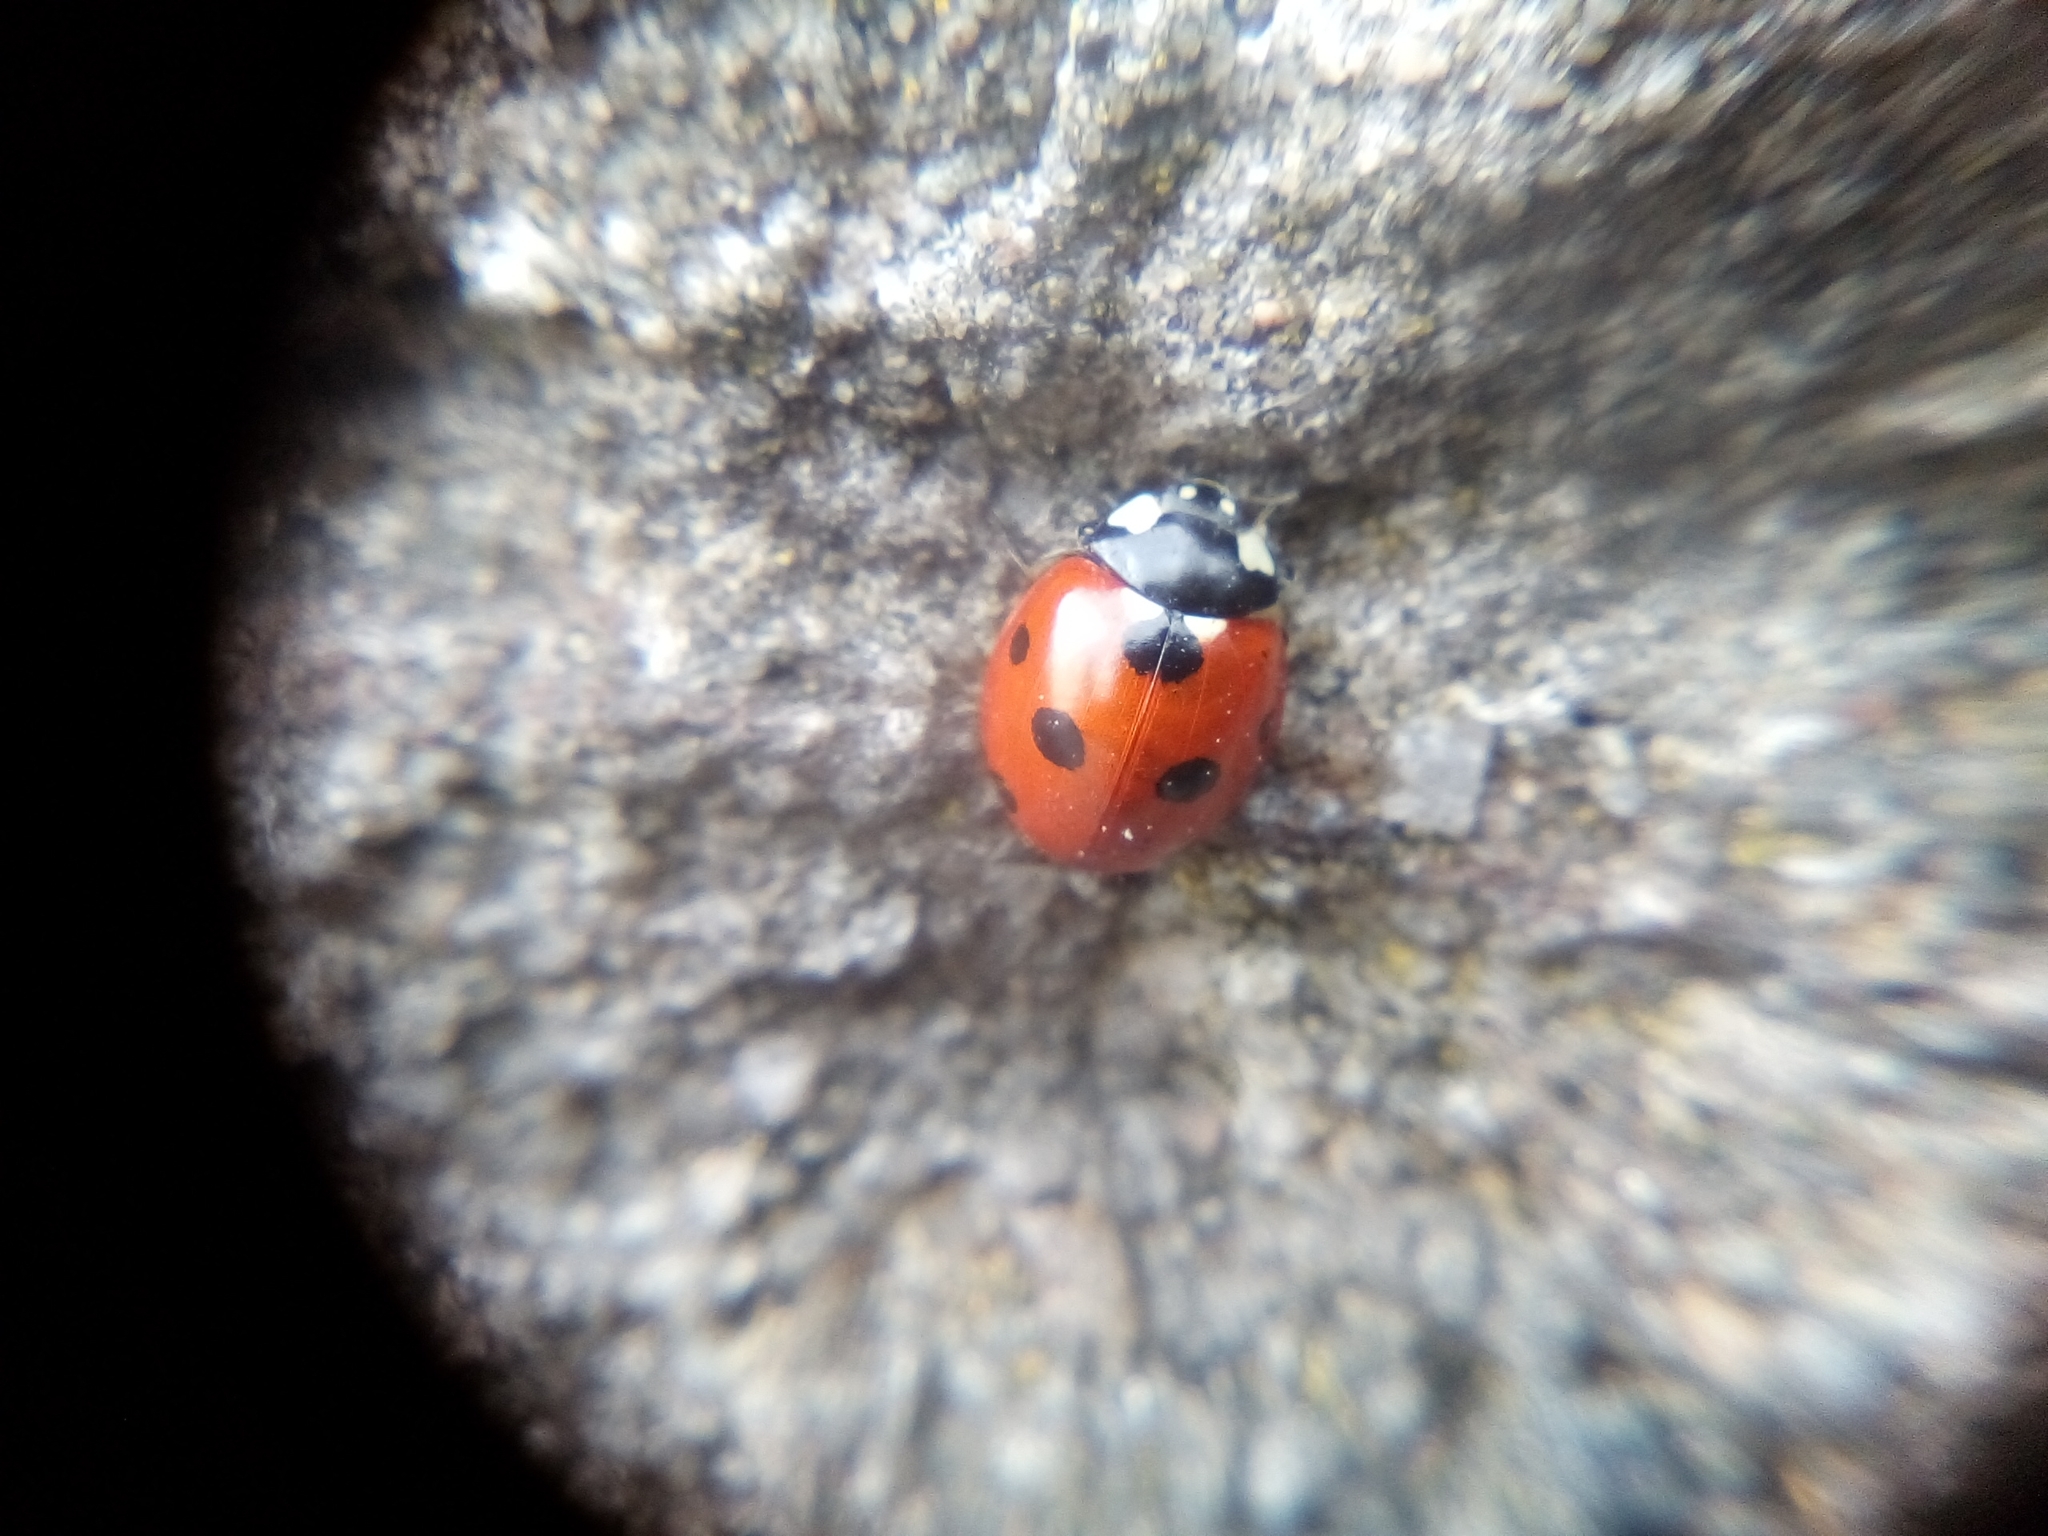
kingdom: Animalia
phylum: Arthropoda
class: Insecta
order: Coleoptera
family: Coccinellidae
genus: Coccinella
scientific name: Coccinella septempunctata
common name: Sevenspotted lady beetle
